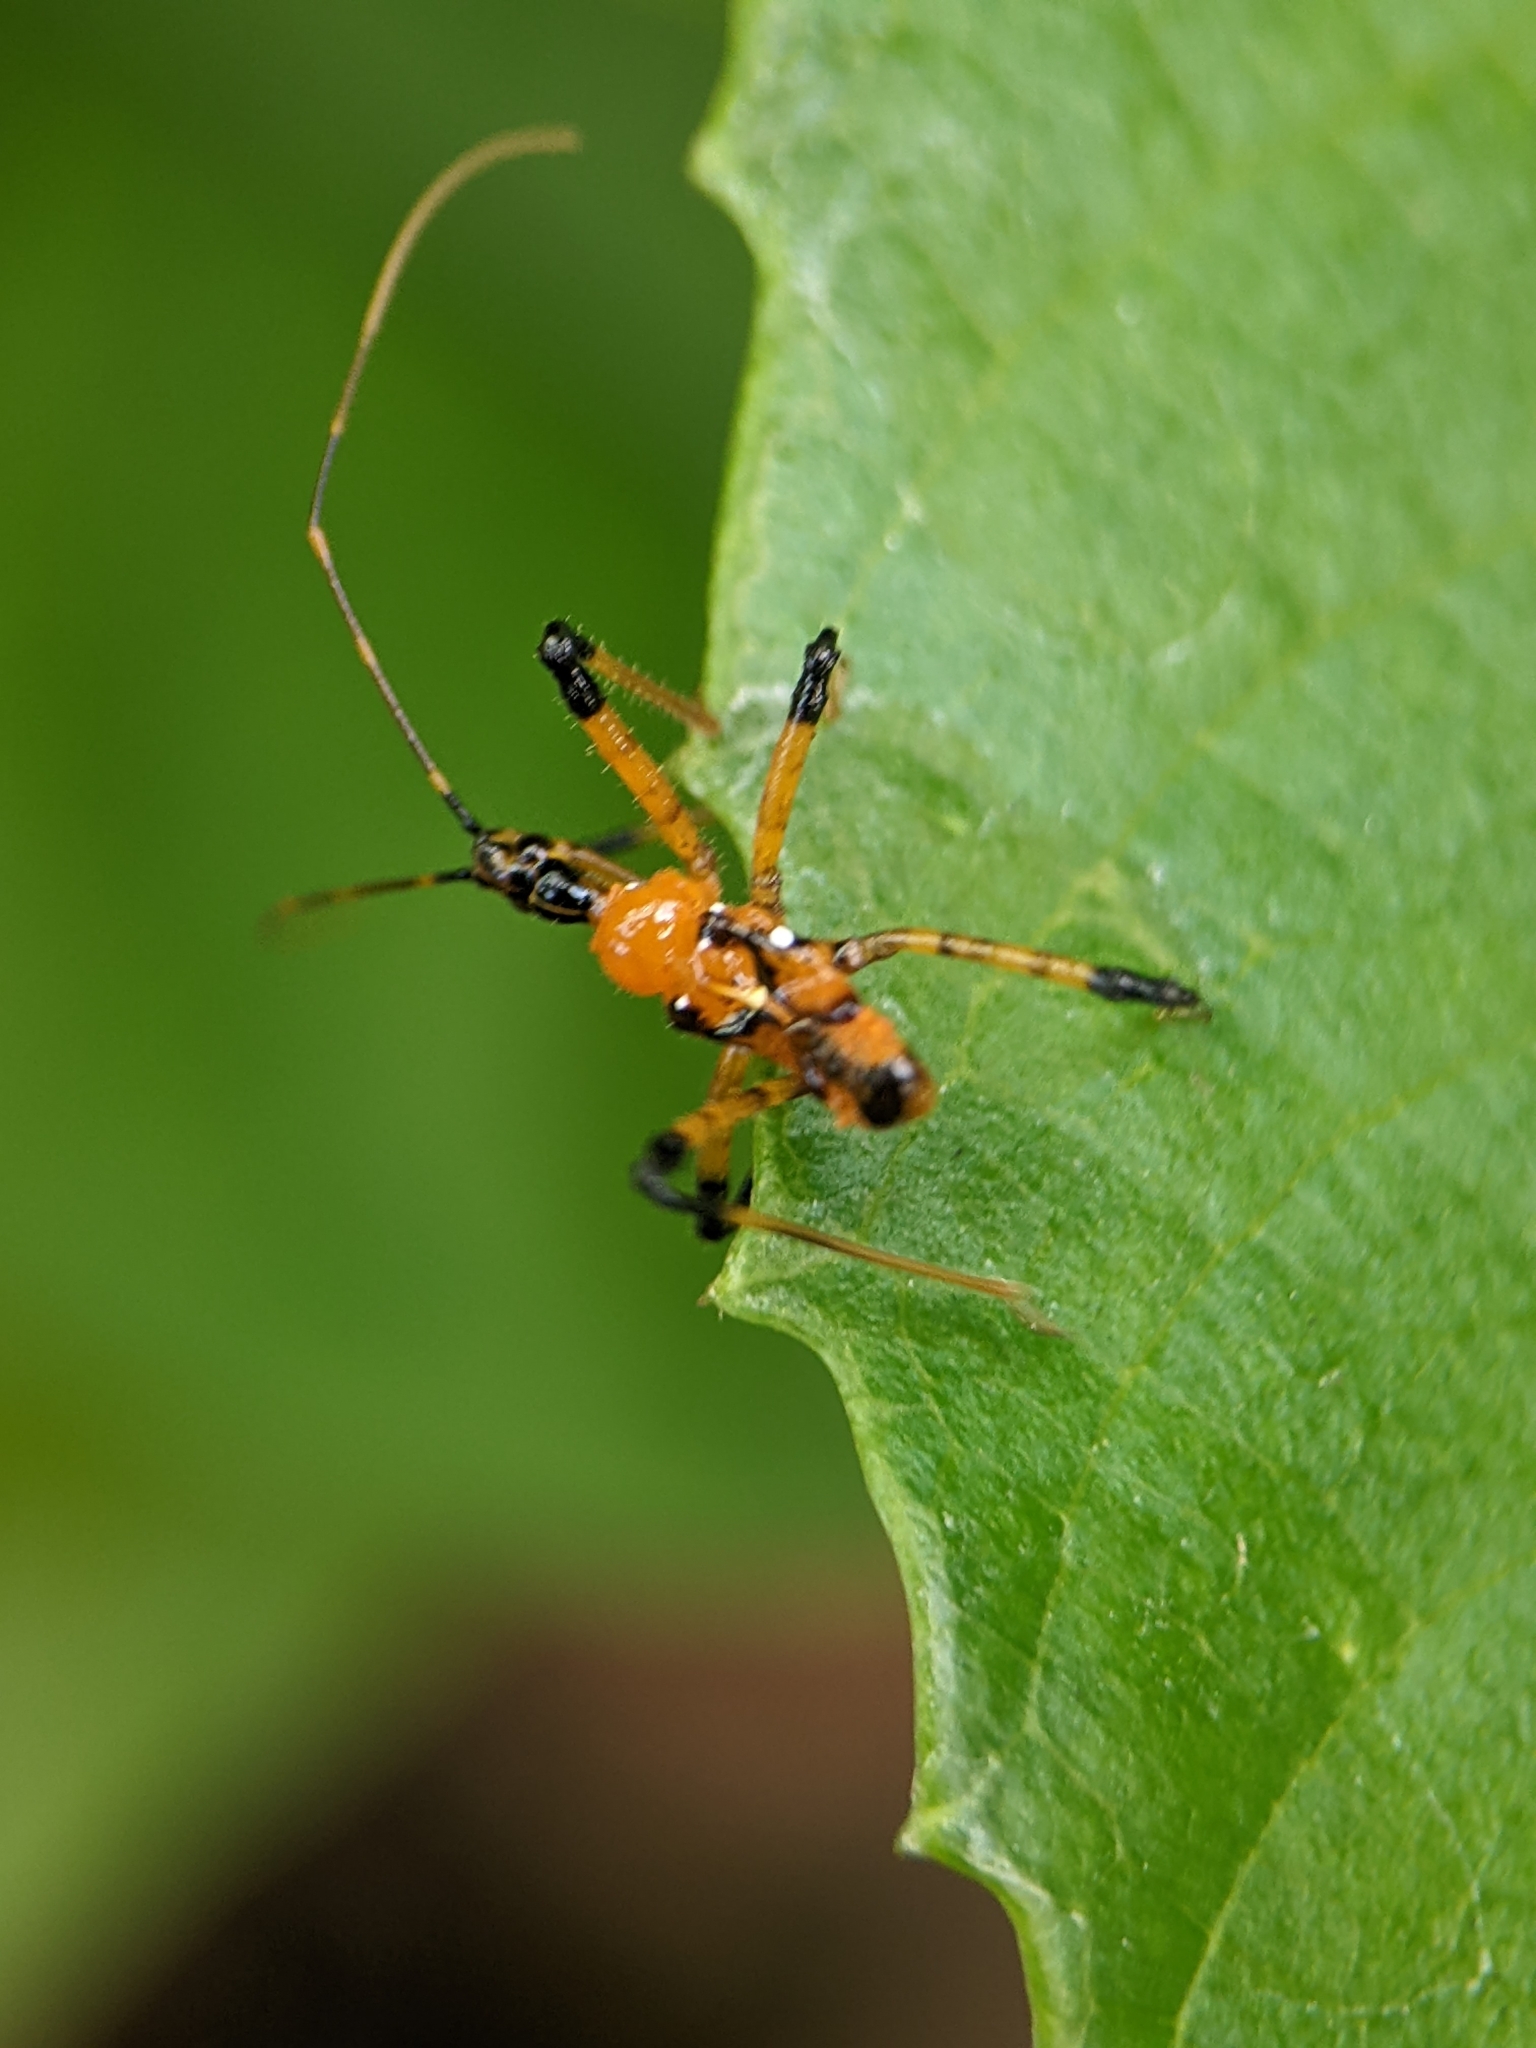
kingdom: Animalia
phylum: Arthropoda
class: Insecta
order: Hemiptera
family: Reduviidae
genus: Cosmolestes
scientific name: Cosmolestes picticeps
